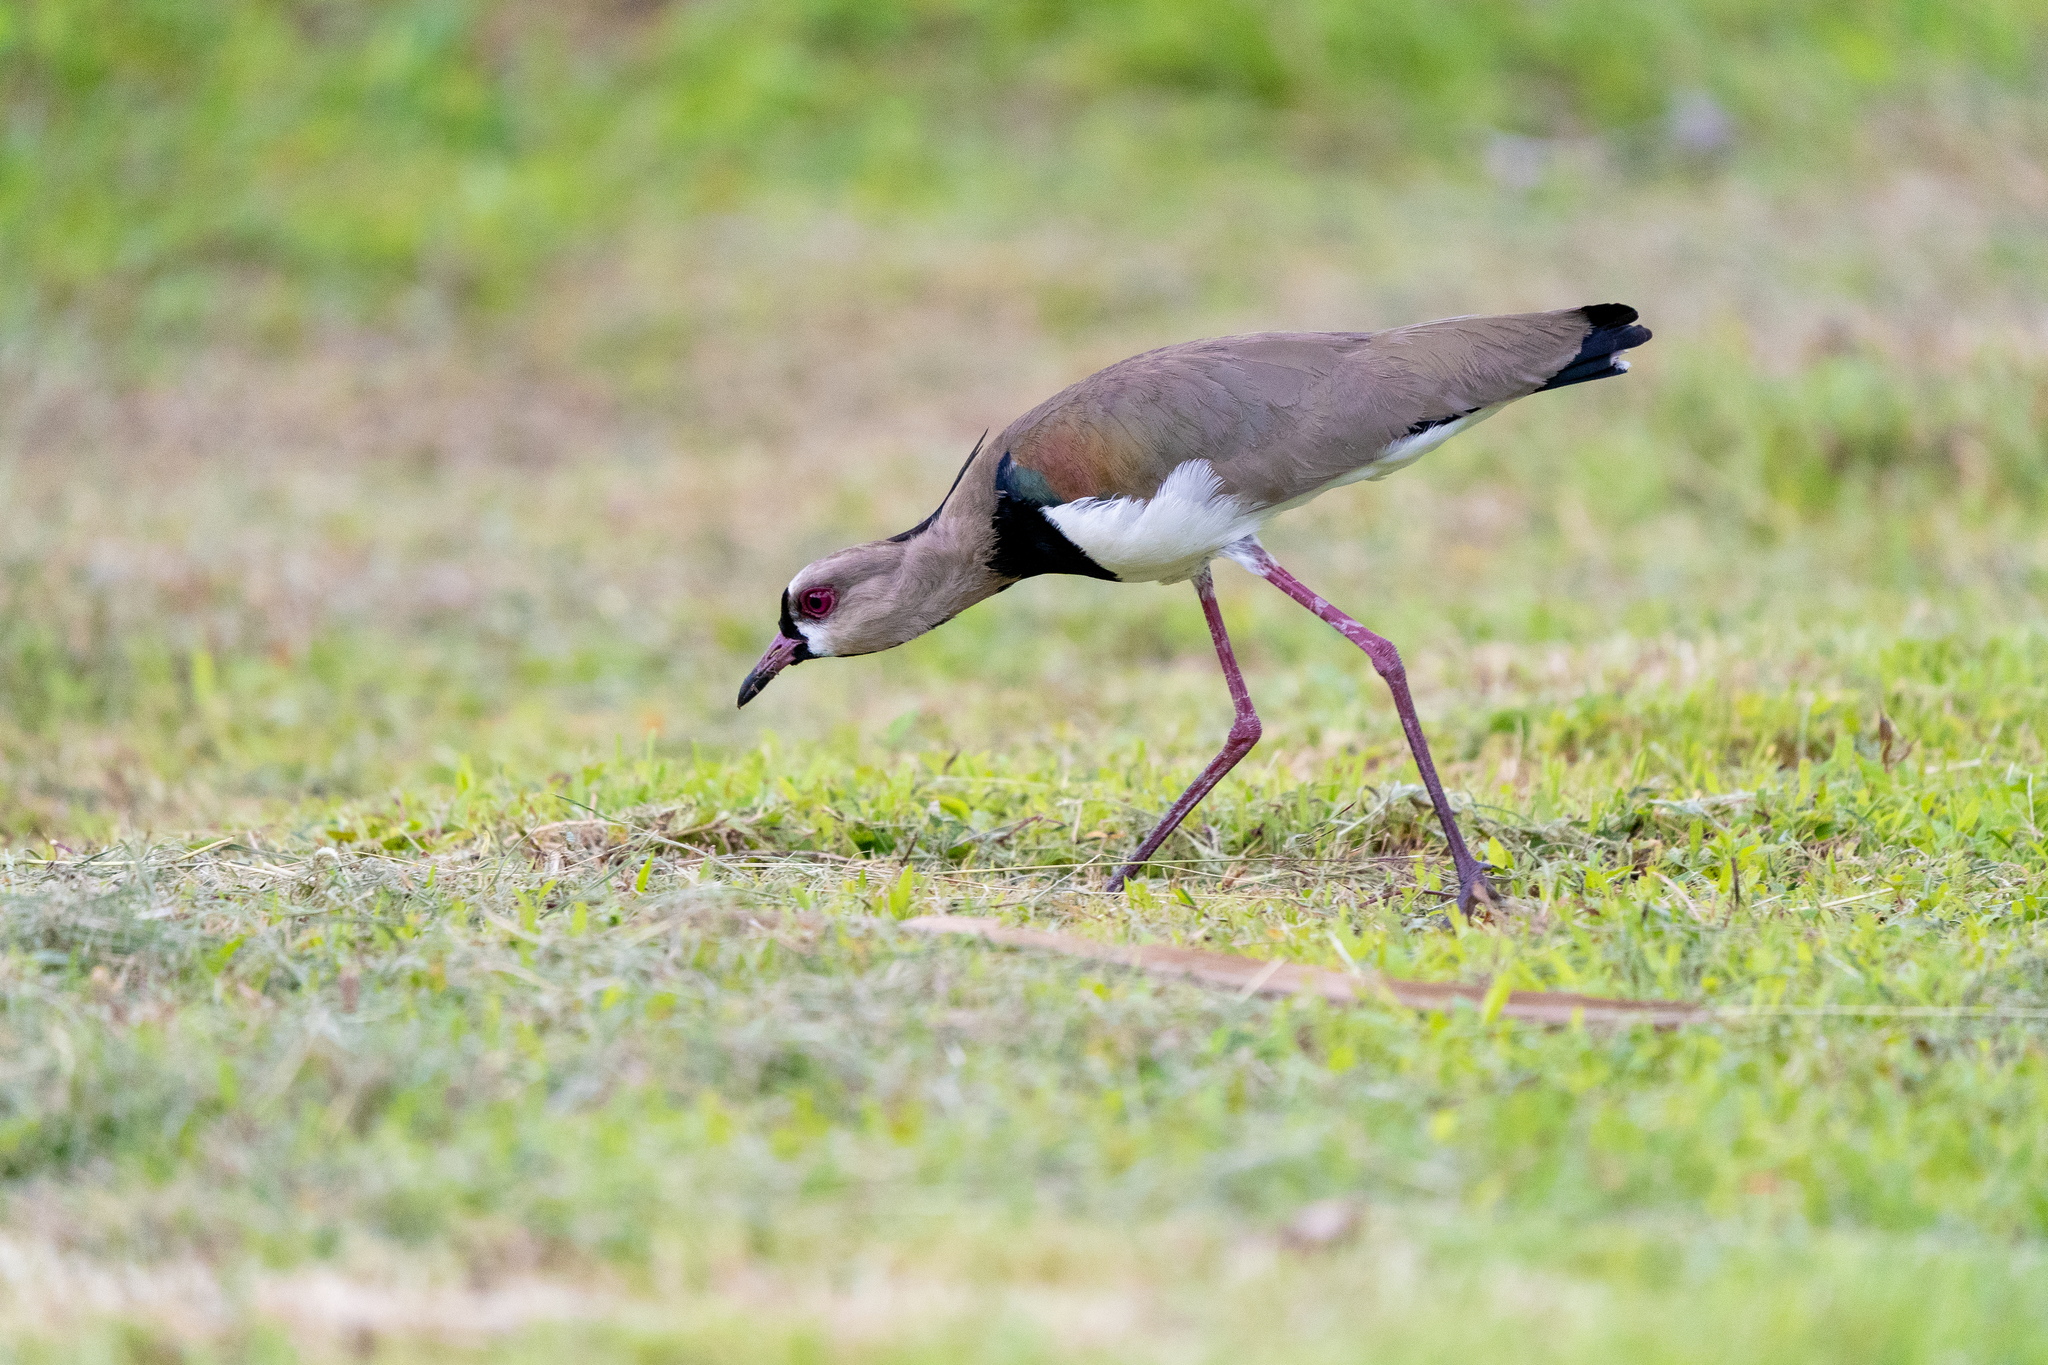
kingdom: Animalia
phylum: Chordata
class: Aves
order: Charadriiformes
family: Charadriidae
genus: Vanellus
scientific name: Vanellus chilensis
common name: Southern lapwing
